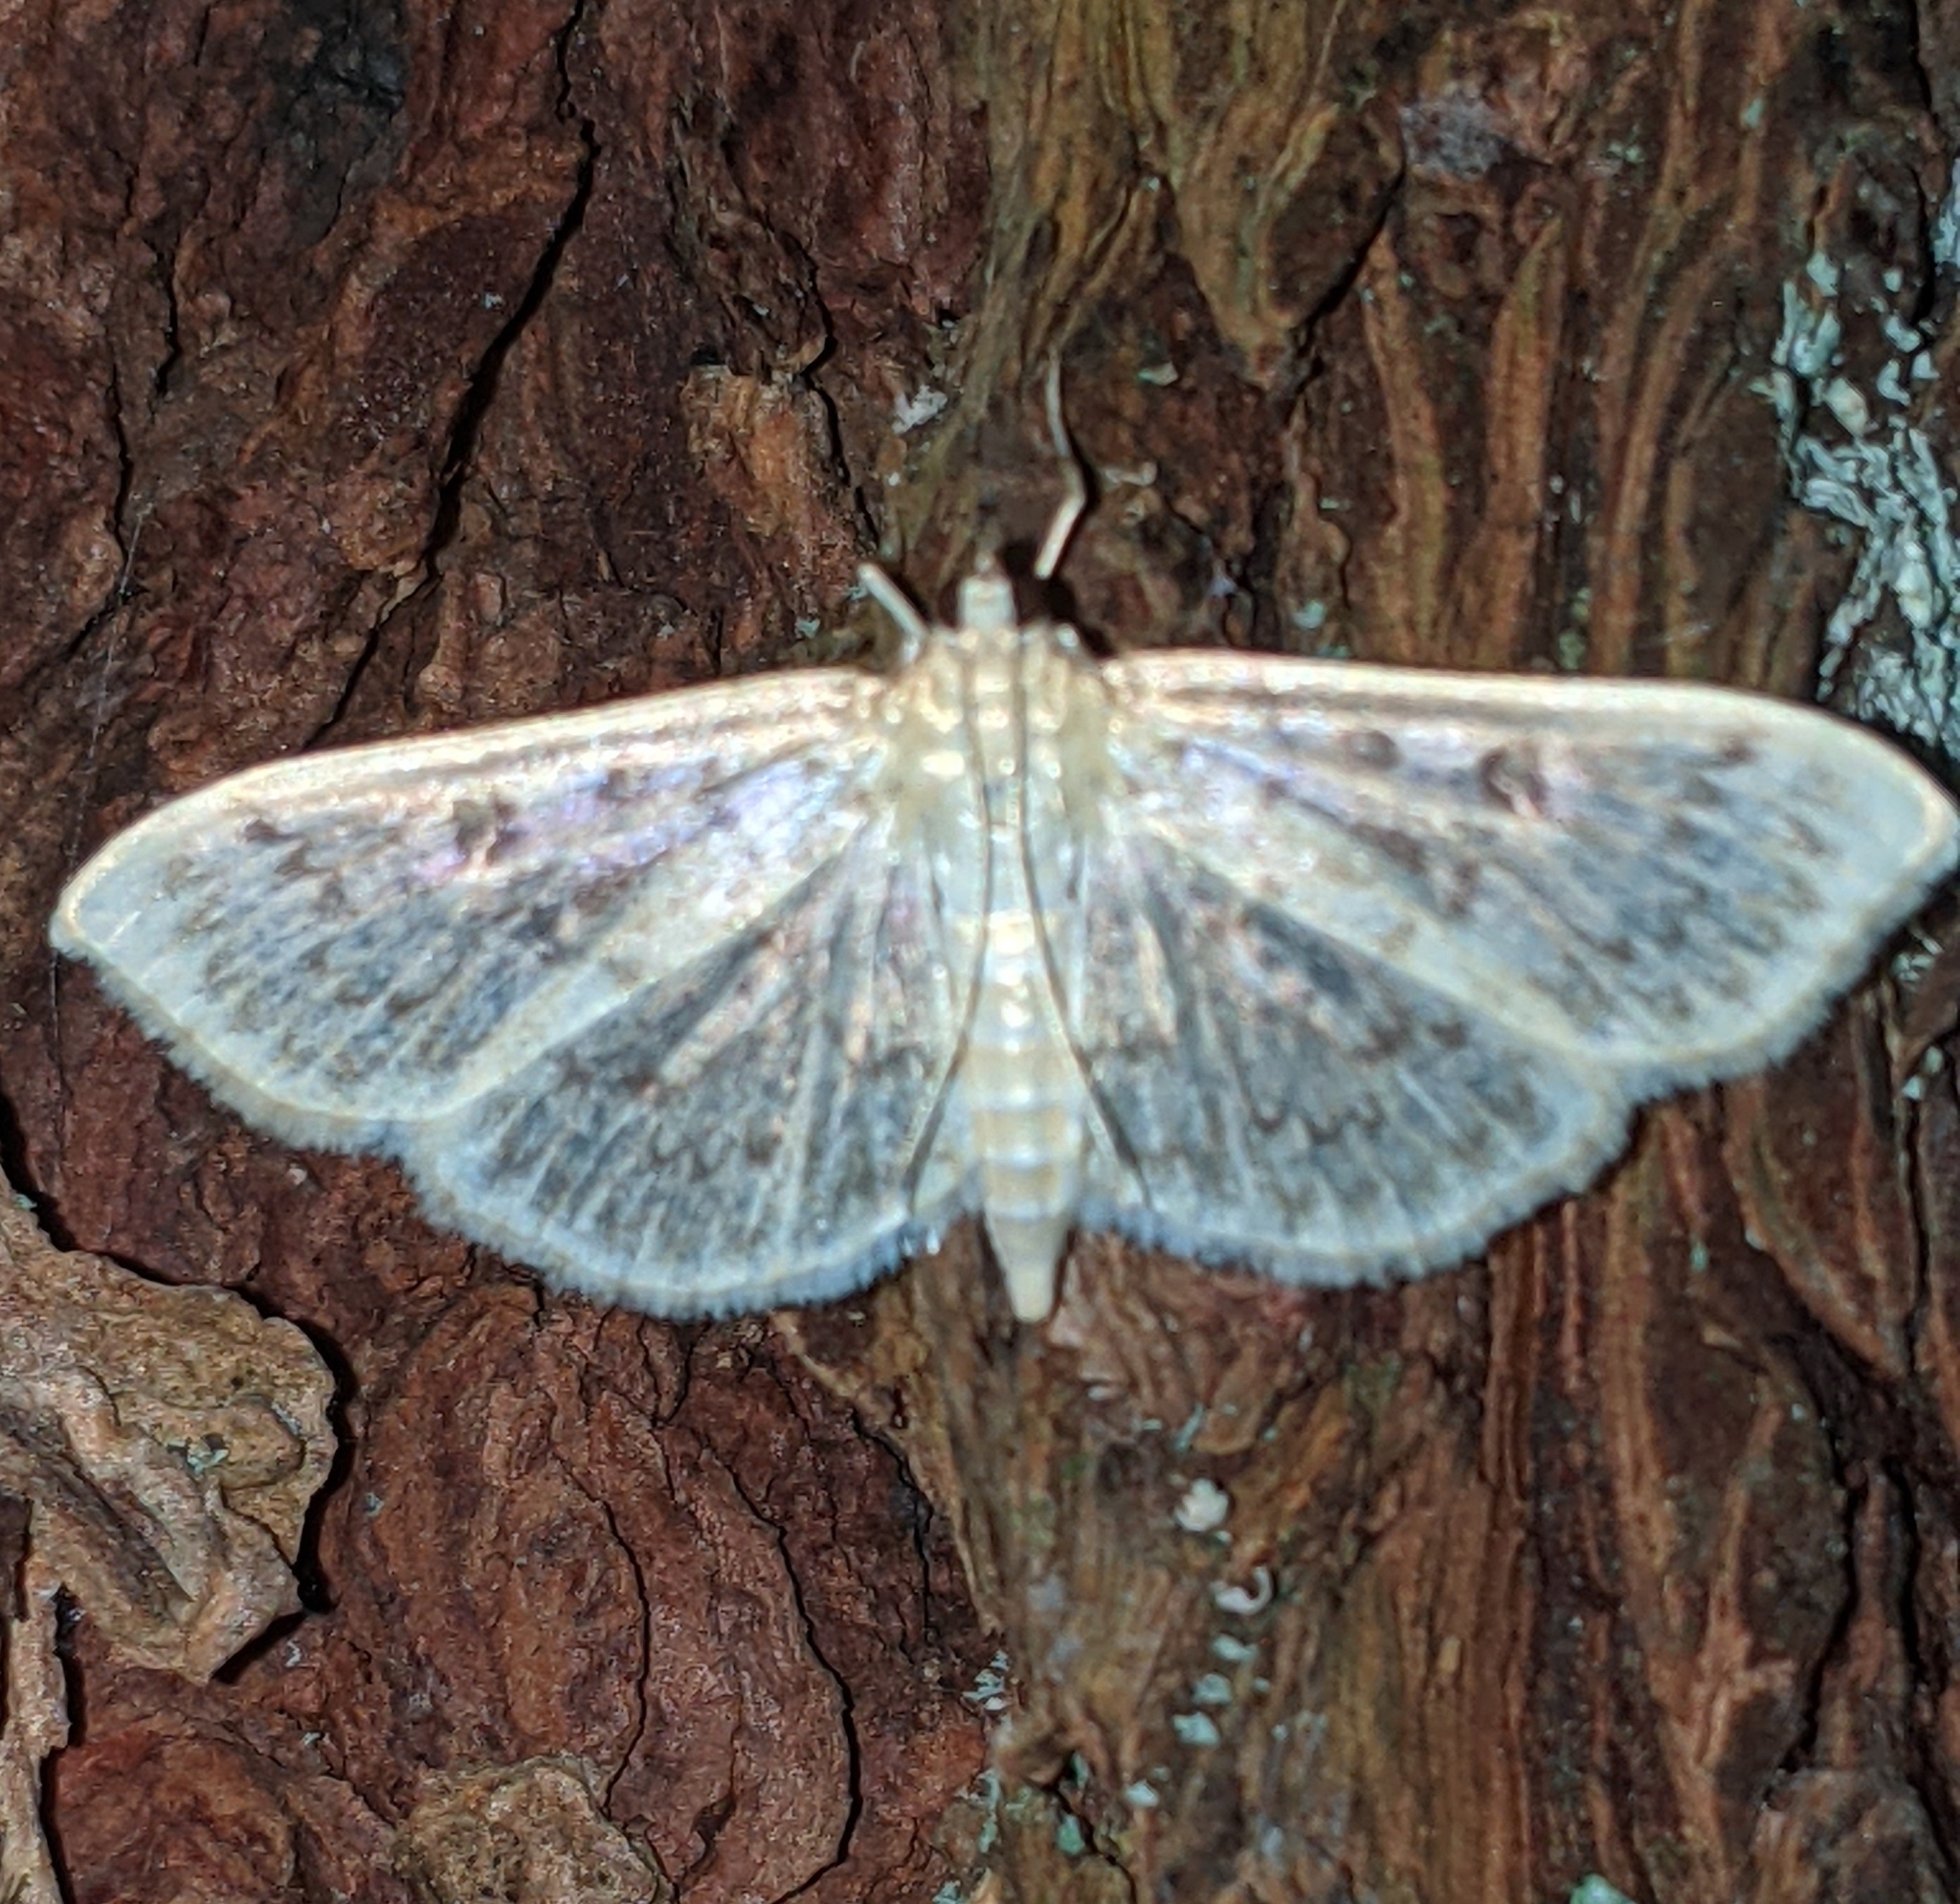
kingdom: Animalia
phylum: Arthropoda
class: Insecta
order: Lepidoptera
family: Crambidae
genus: Herpetogramma
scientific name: Herpetogramma aquilonalis
